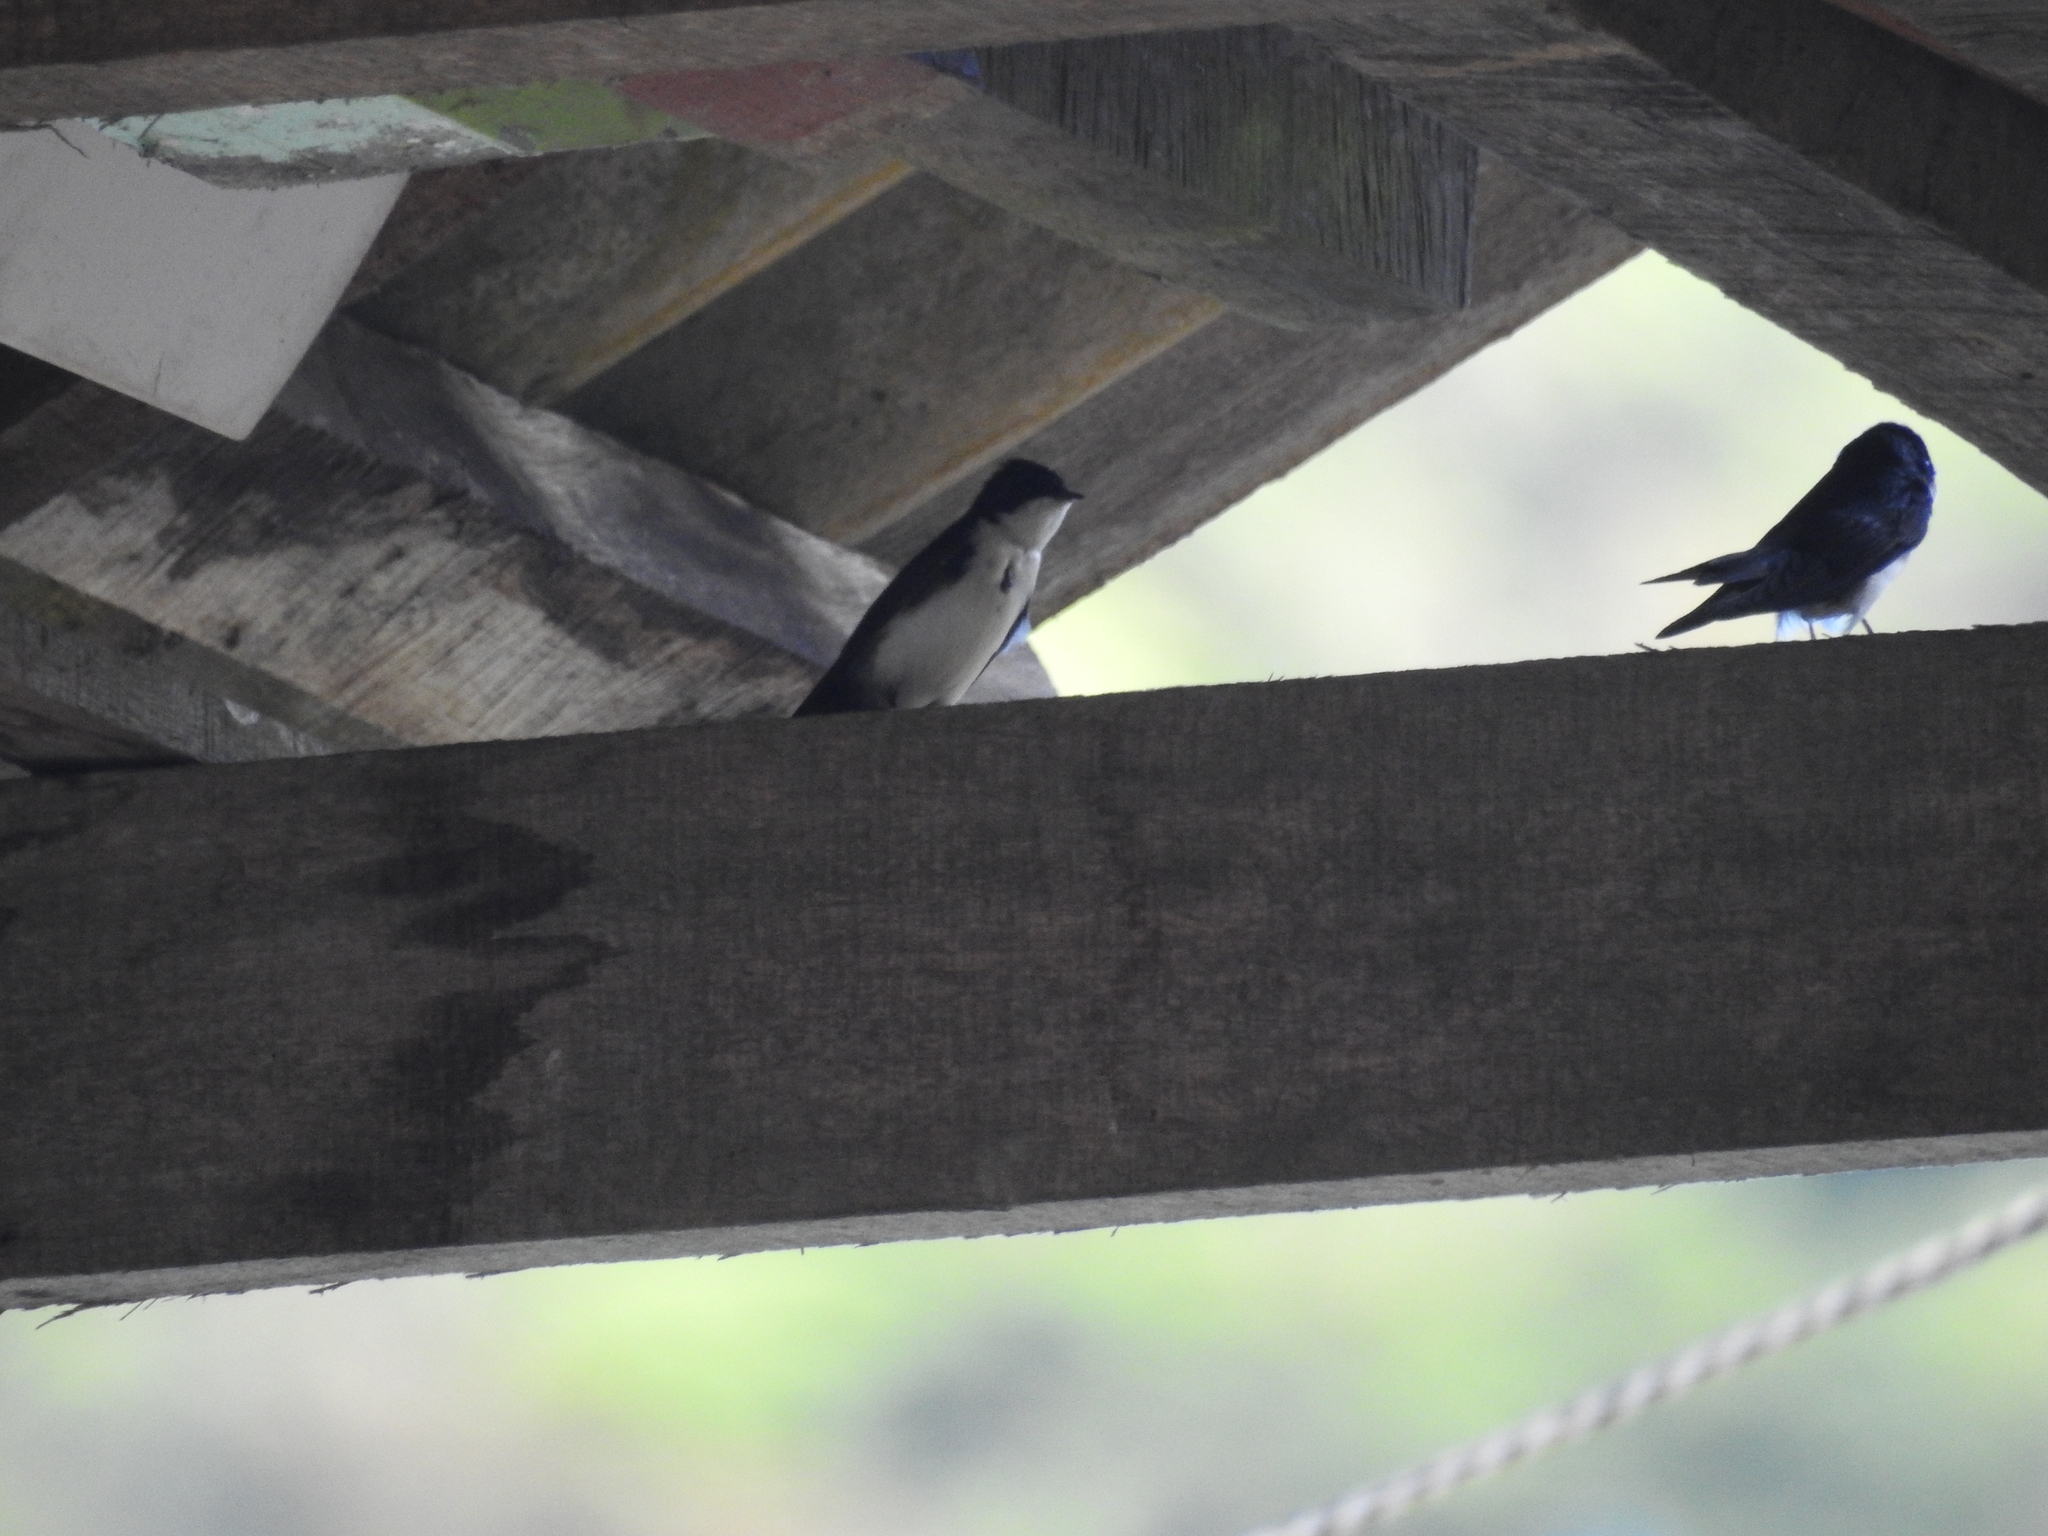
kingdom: Animalia
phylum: Chordata
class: Aves
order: Passeriformes
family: Hirundinidae
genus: Notiochelidon
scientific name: Notiochelidon cyanoleuca
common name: Blue-and-white swallow
